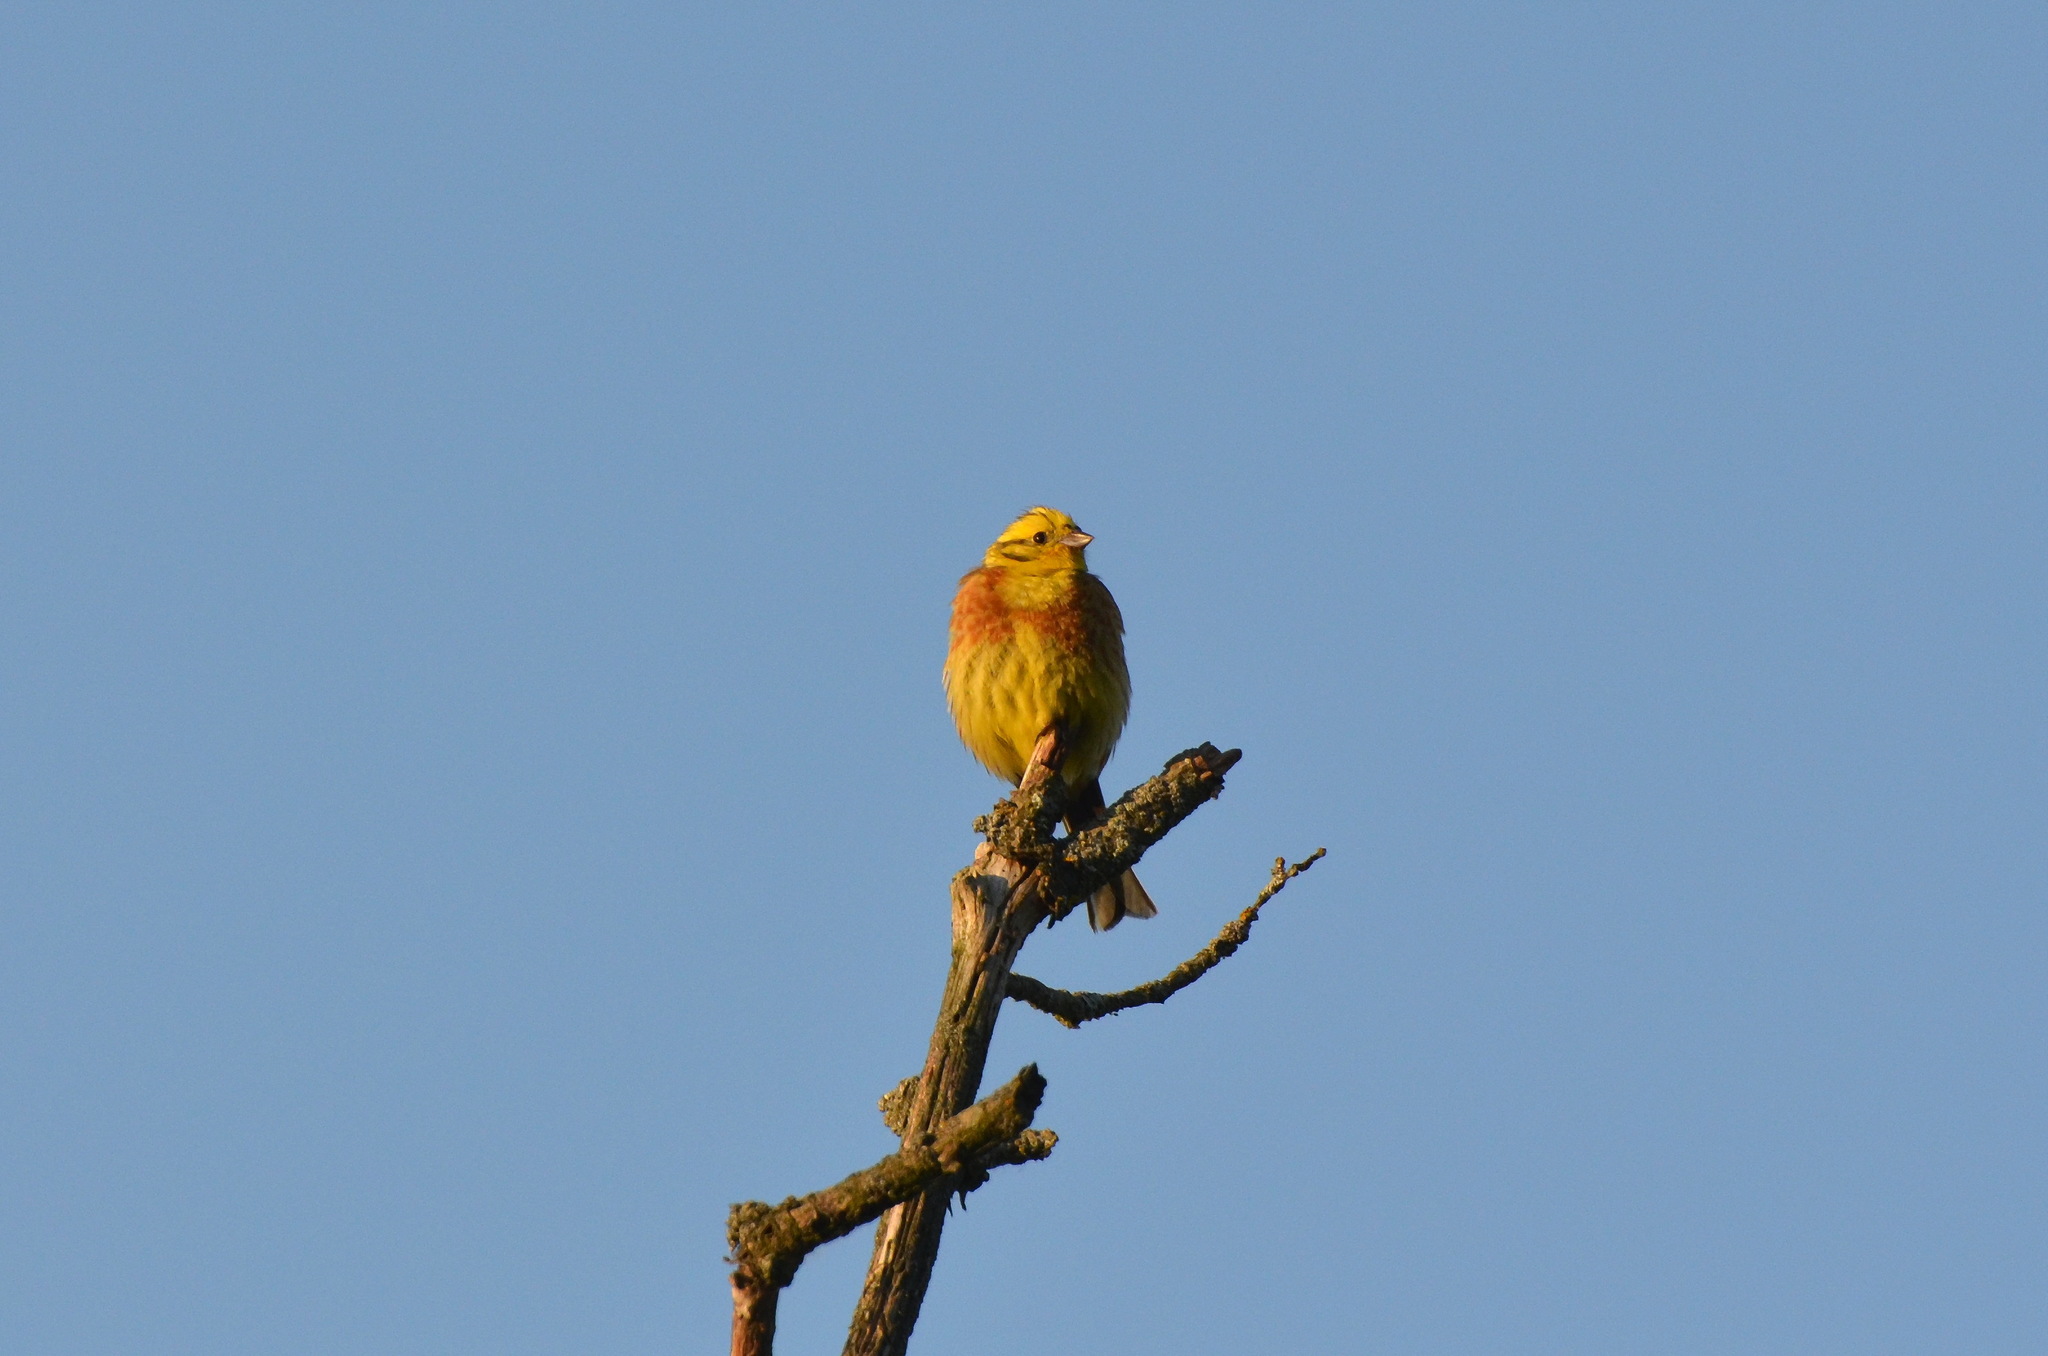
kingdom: Animalia
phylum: Chordata
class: Aves
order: Passeriformes
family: Emberizidae
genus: Emberiza
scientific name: Emberiza citrinella
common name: Yellowhammer
